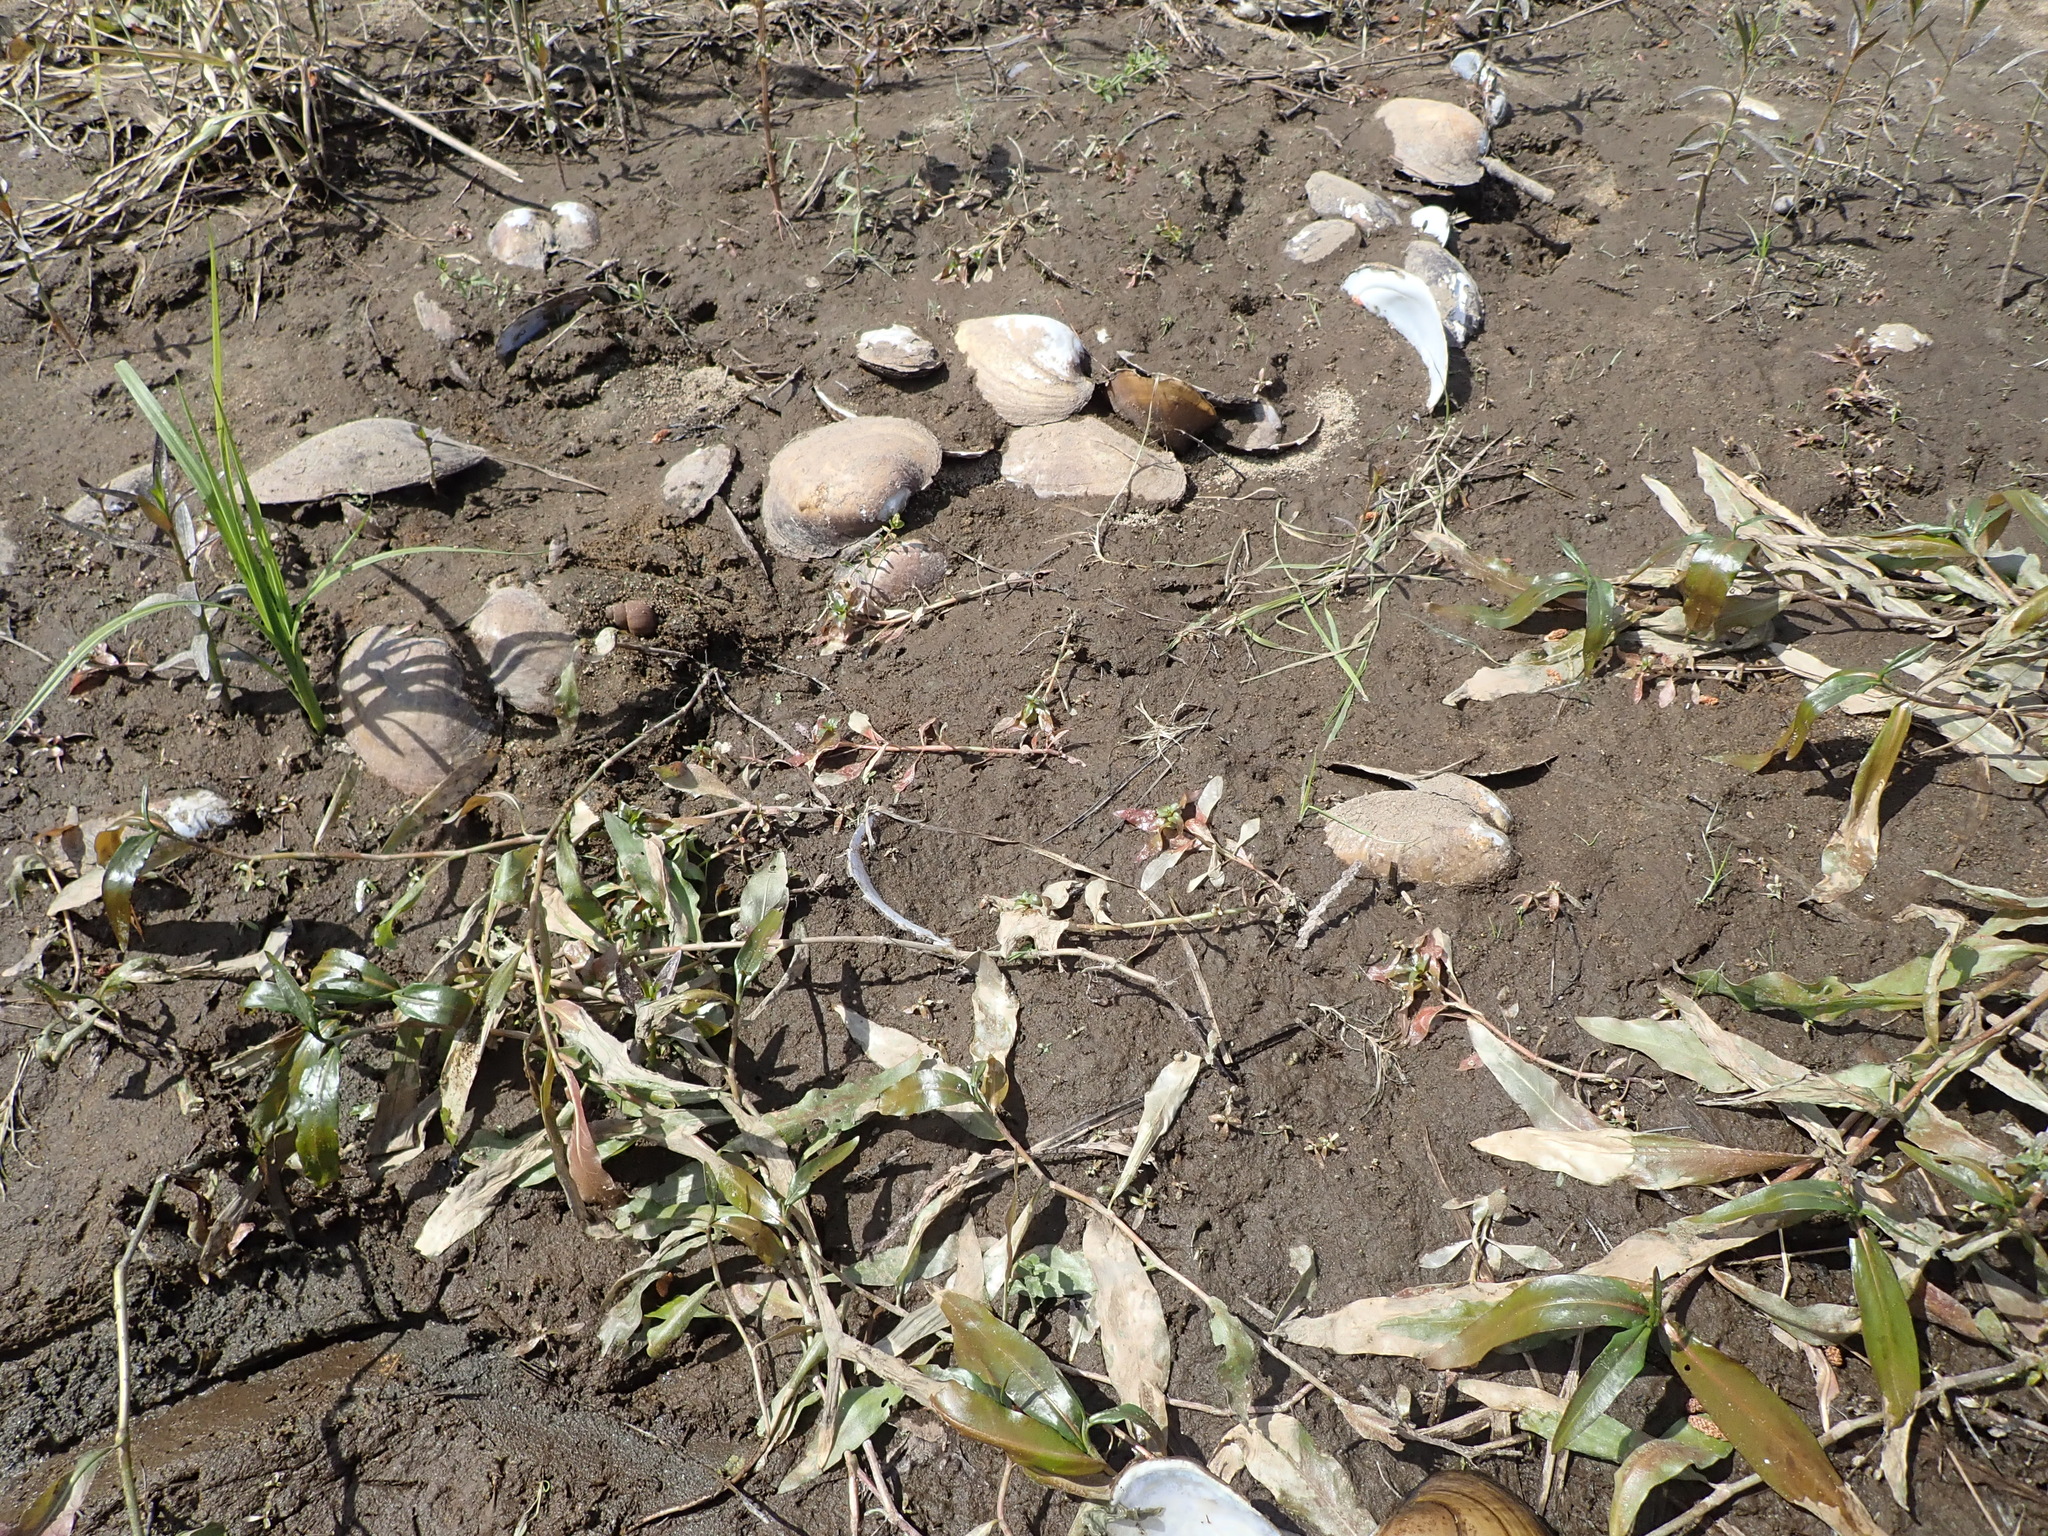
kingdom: Animalia
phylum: Mollusca
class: Bivalvia
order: Unionida
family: Unionidae
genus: Lampsilis
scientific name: Lampsilis cardium
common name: Plain pocketbook
